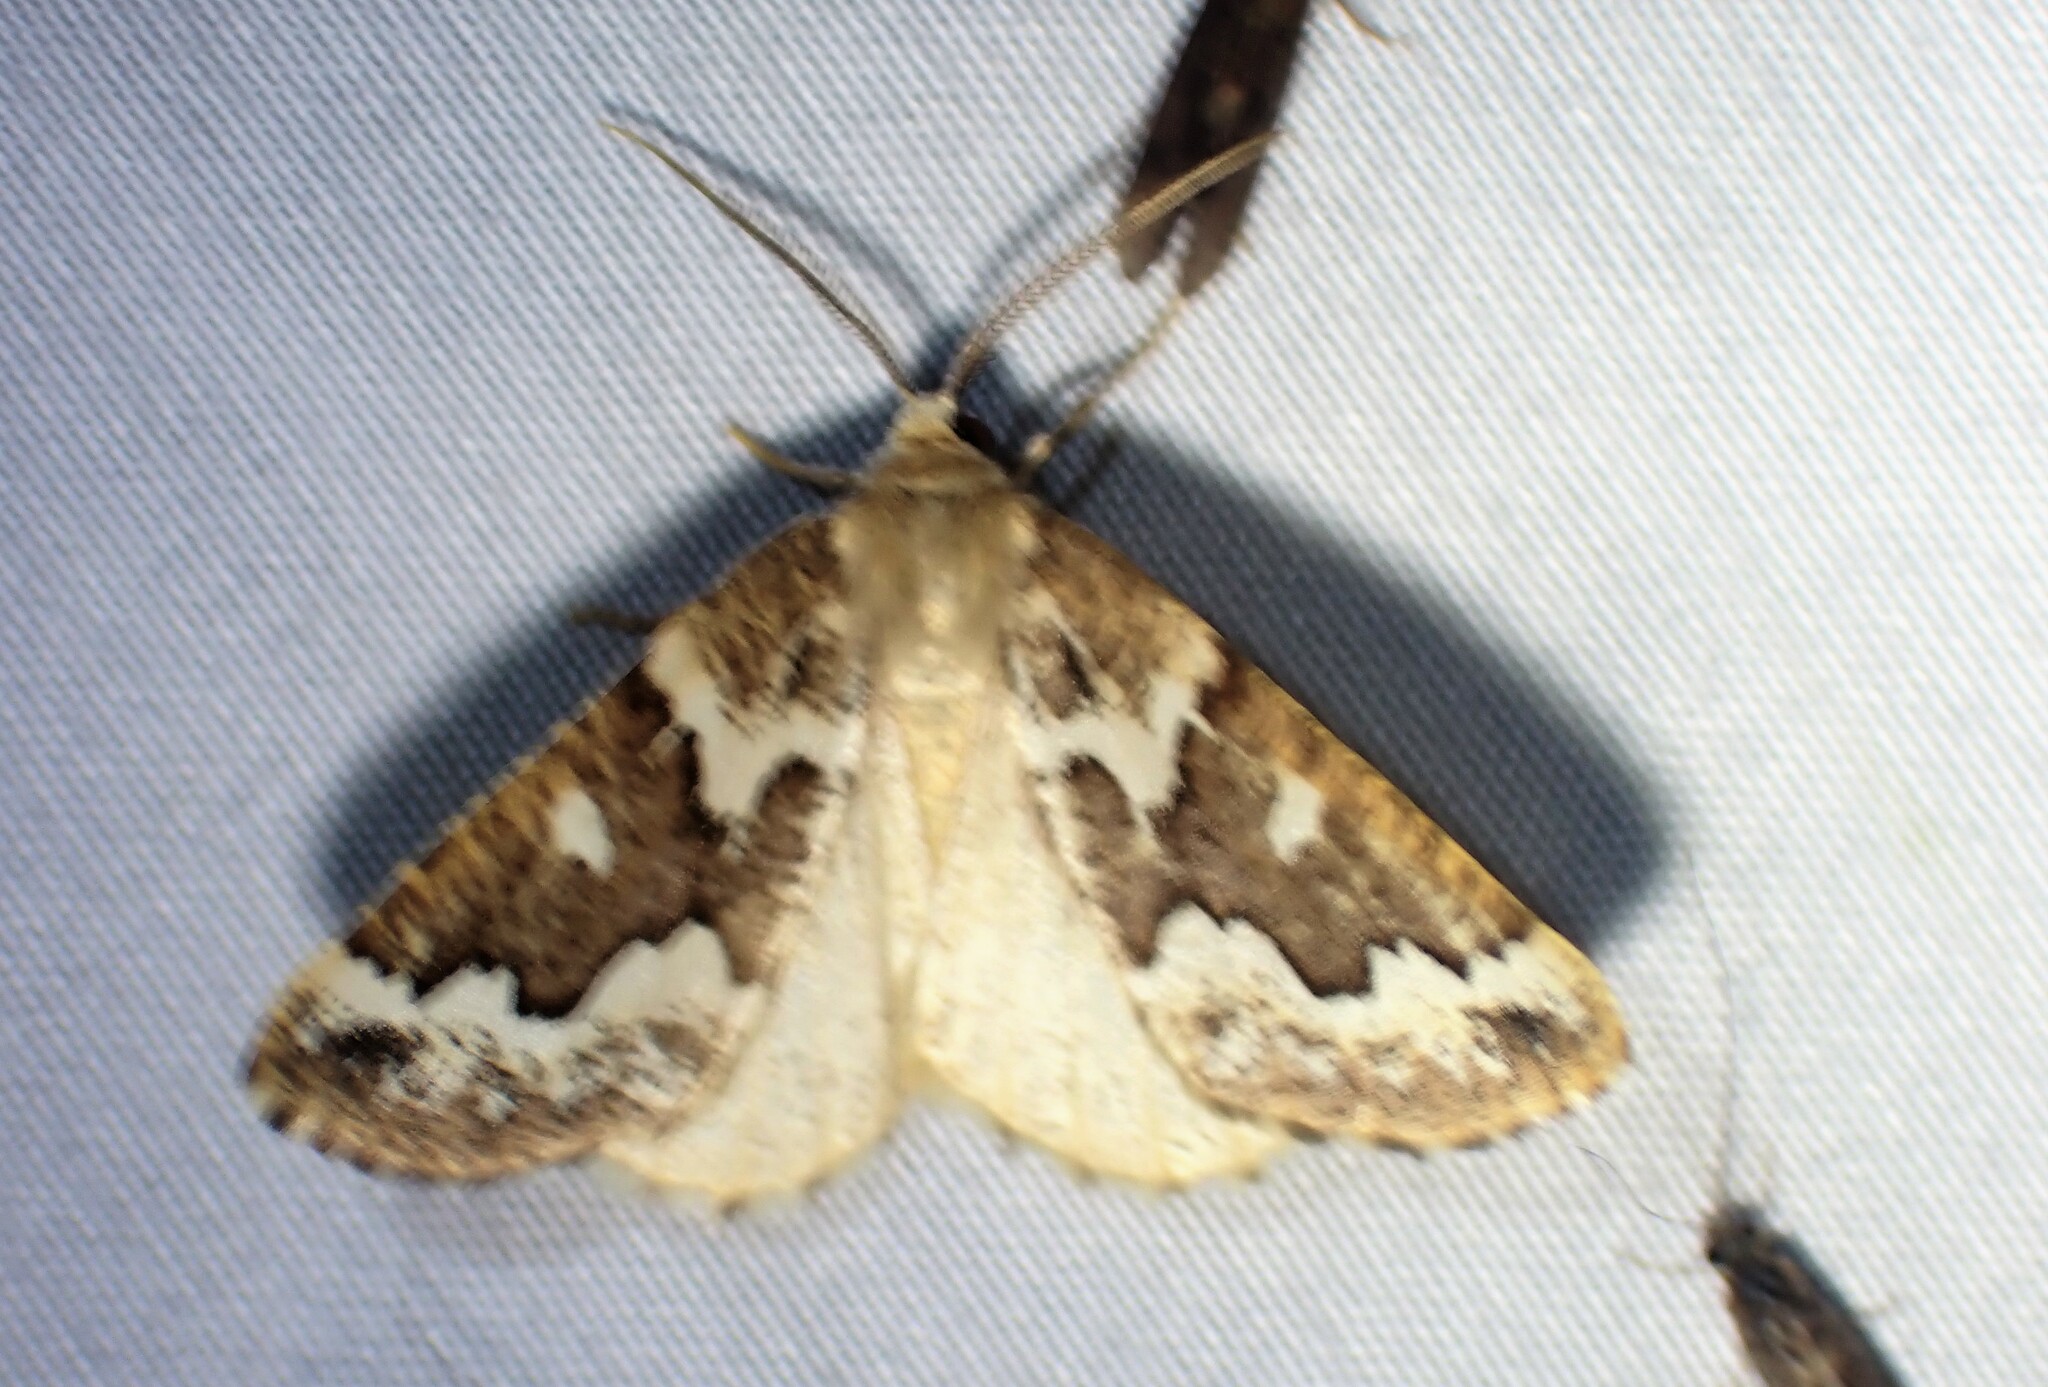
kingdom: Animalia
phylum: Arthropoda
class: Insecta
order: Lepidoptera
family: Geometridae
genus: Caripeta
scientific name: Caripeta divisata
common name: Gray spruce looper
